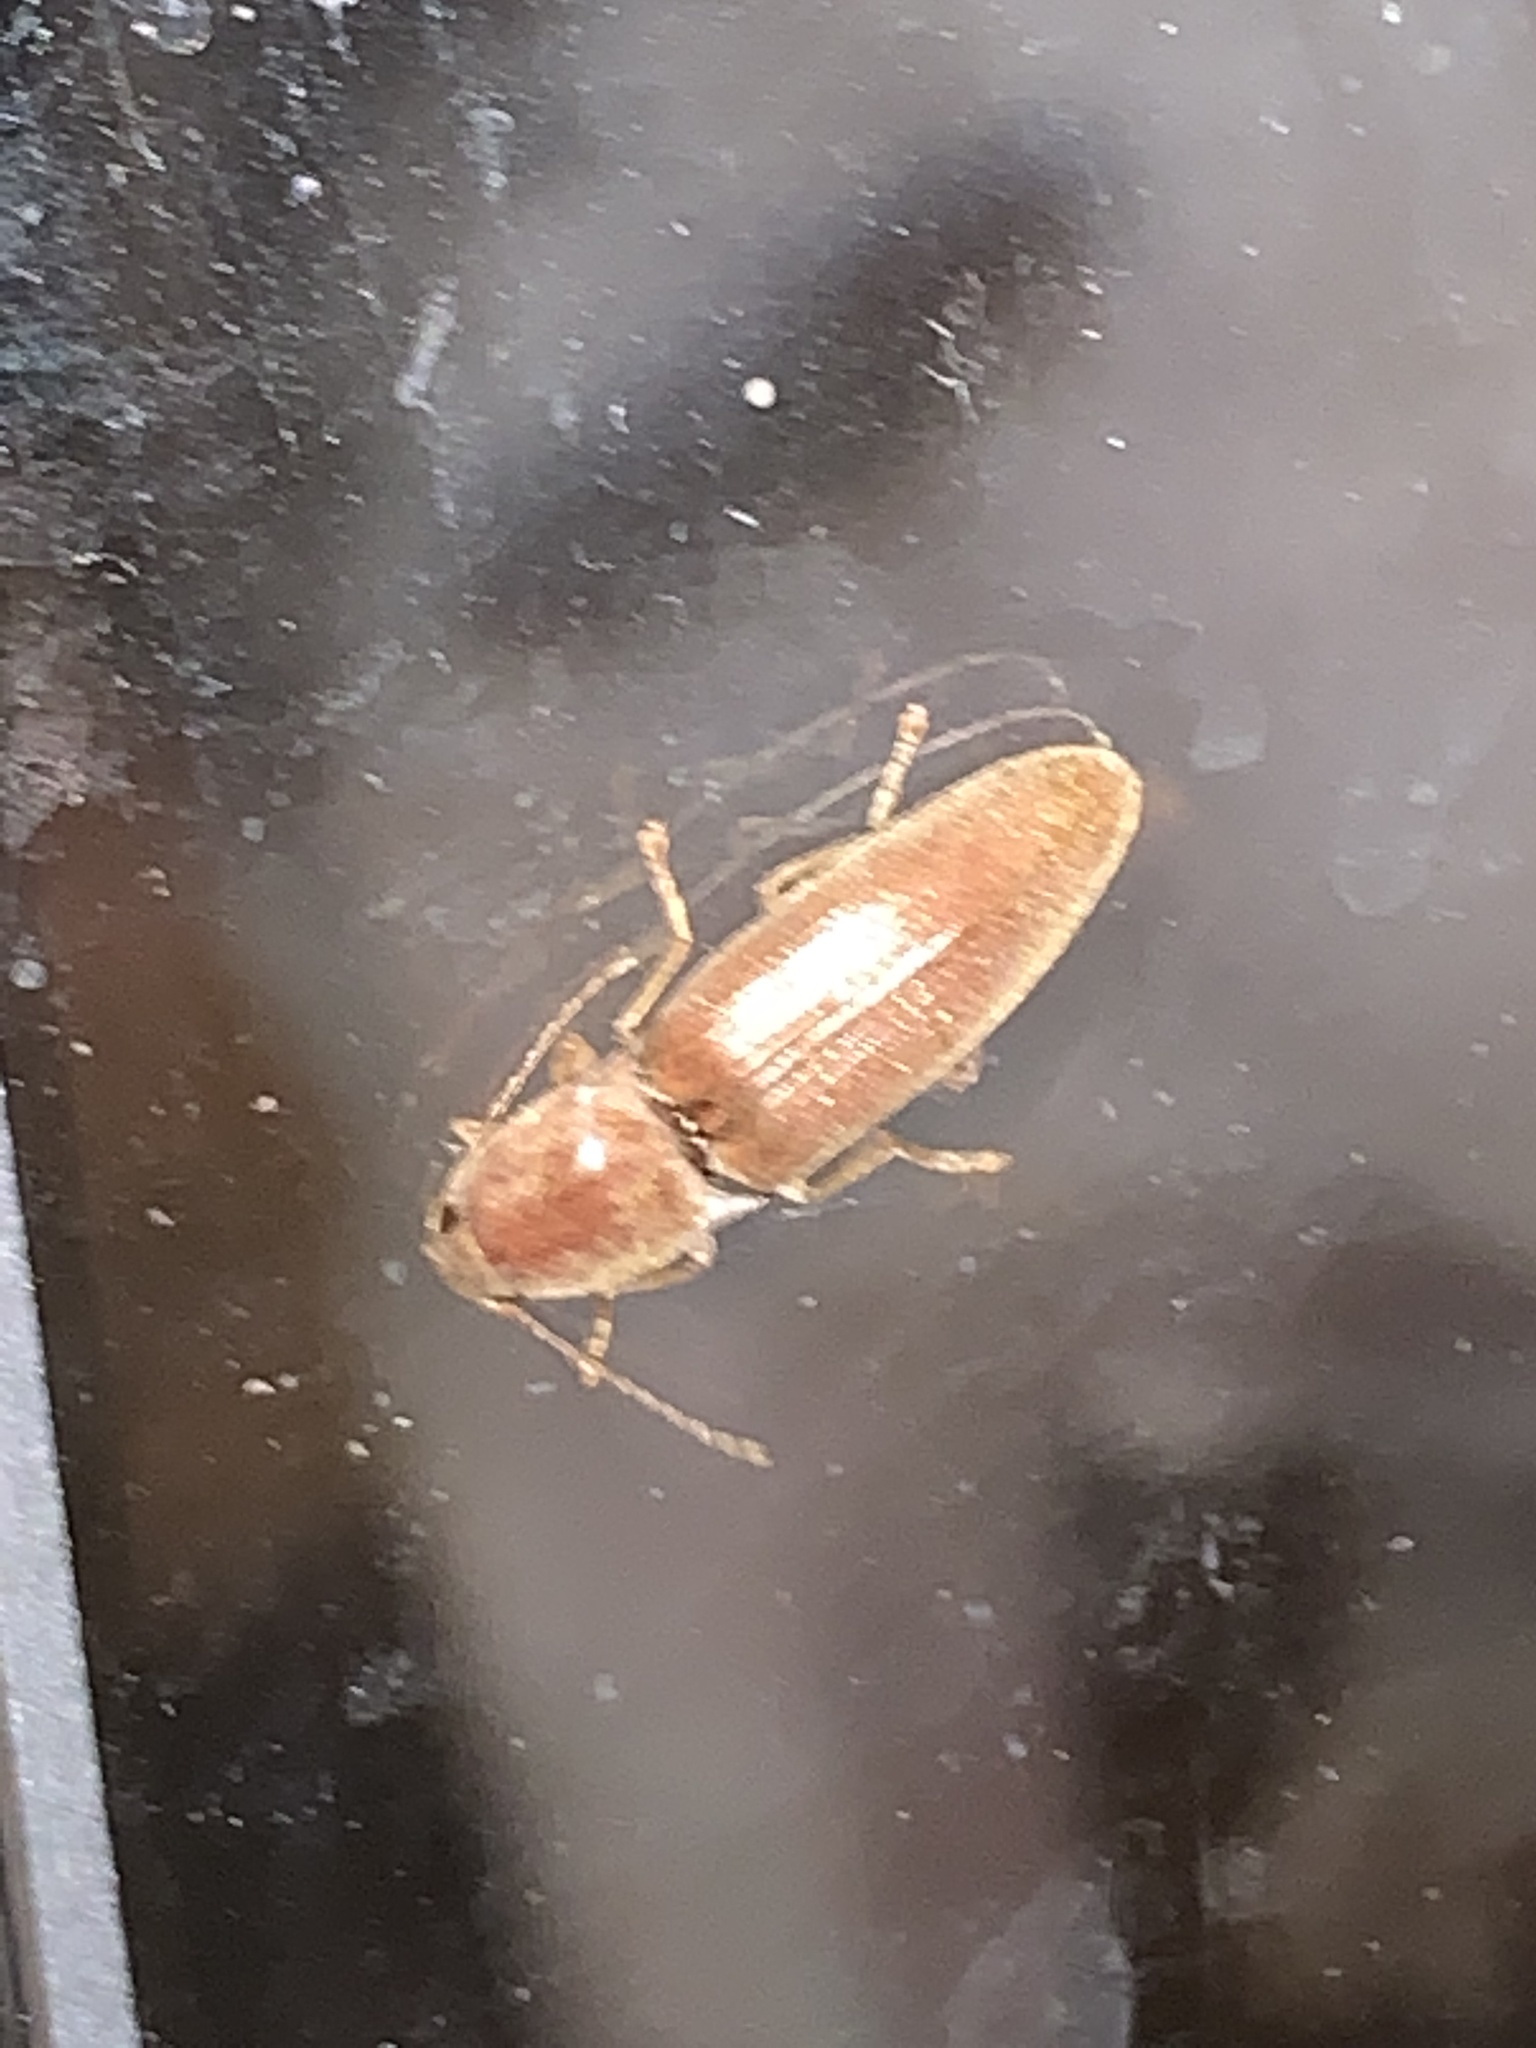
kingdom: Animalia
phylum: Arthropoda
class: Insecta
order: Coleoptera
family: Elateridae
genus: Monocrepidius
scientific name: Monocrepidius lividus
